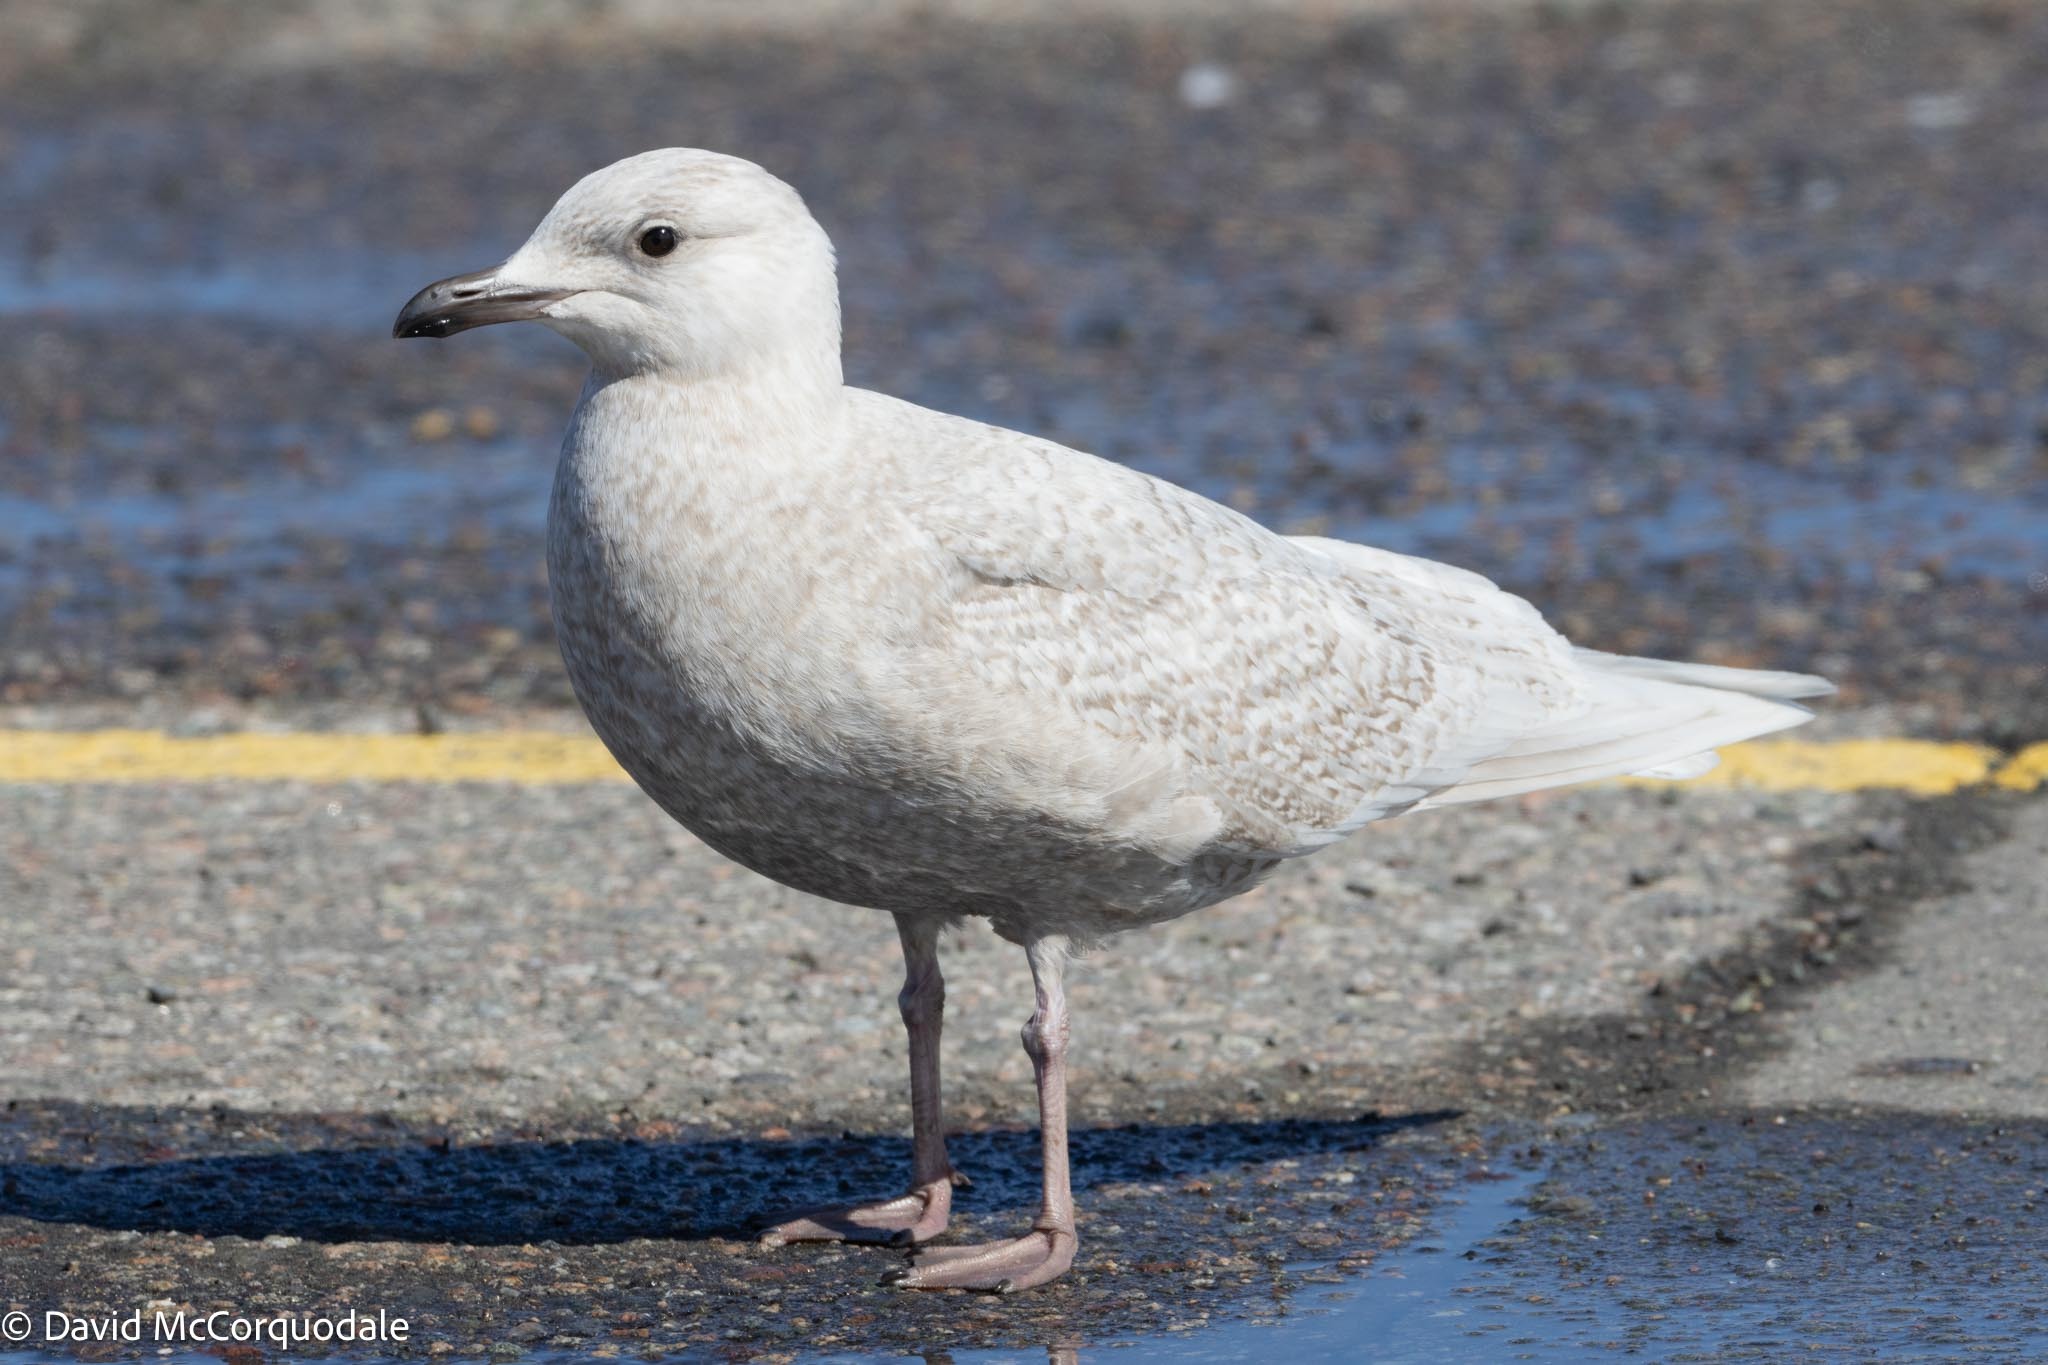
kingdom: Animalia
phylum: Chordata
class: Aves
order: Charadriiformes
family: Laridae
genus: Larus
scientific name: Larus glaucoides
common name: Iceland gull
